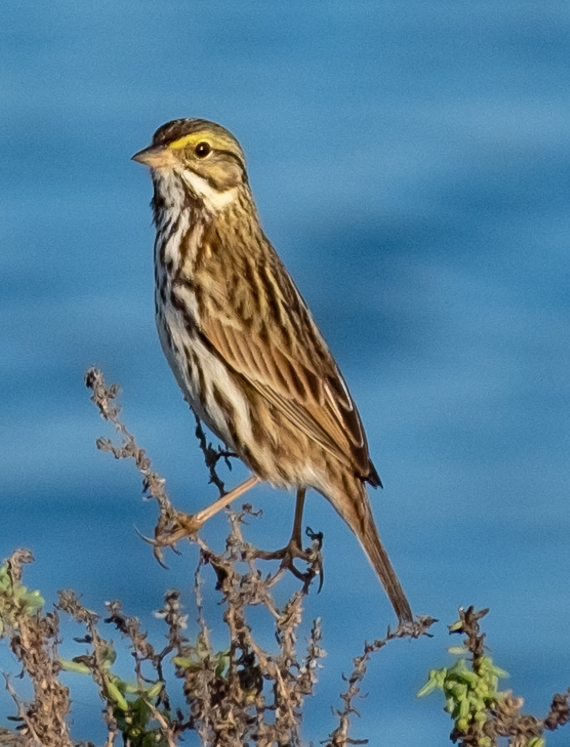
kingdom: Animalia
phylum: Chordata
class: Aves
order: Passeriformes
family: Passerellidae
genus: Passerculus
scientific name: Passerculus sandwichensis
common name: Savannah sparrow
